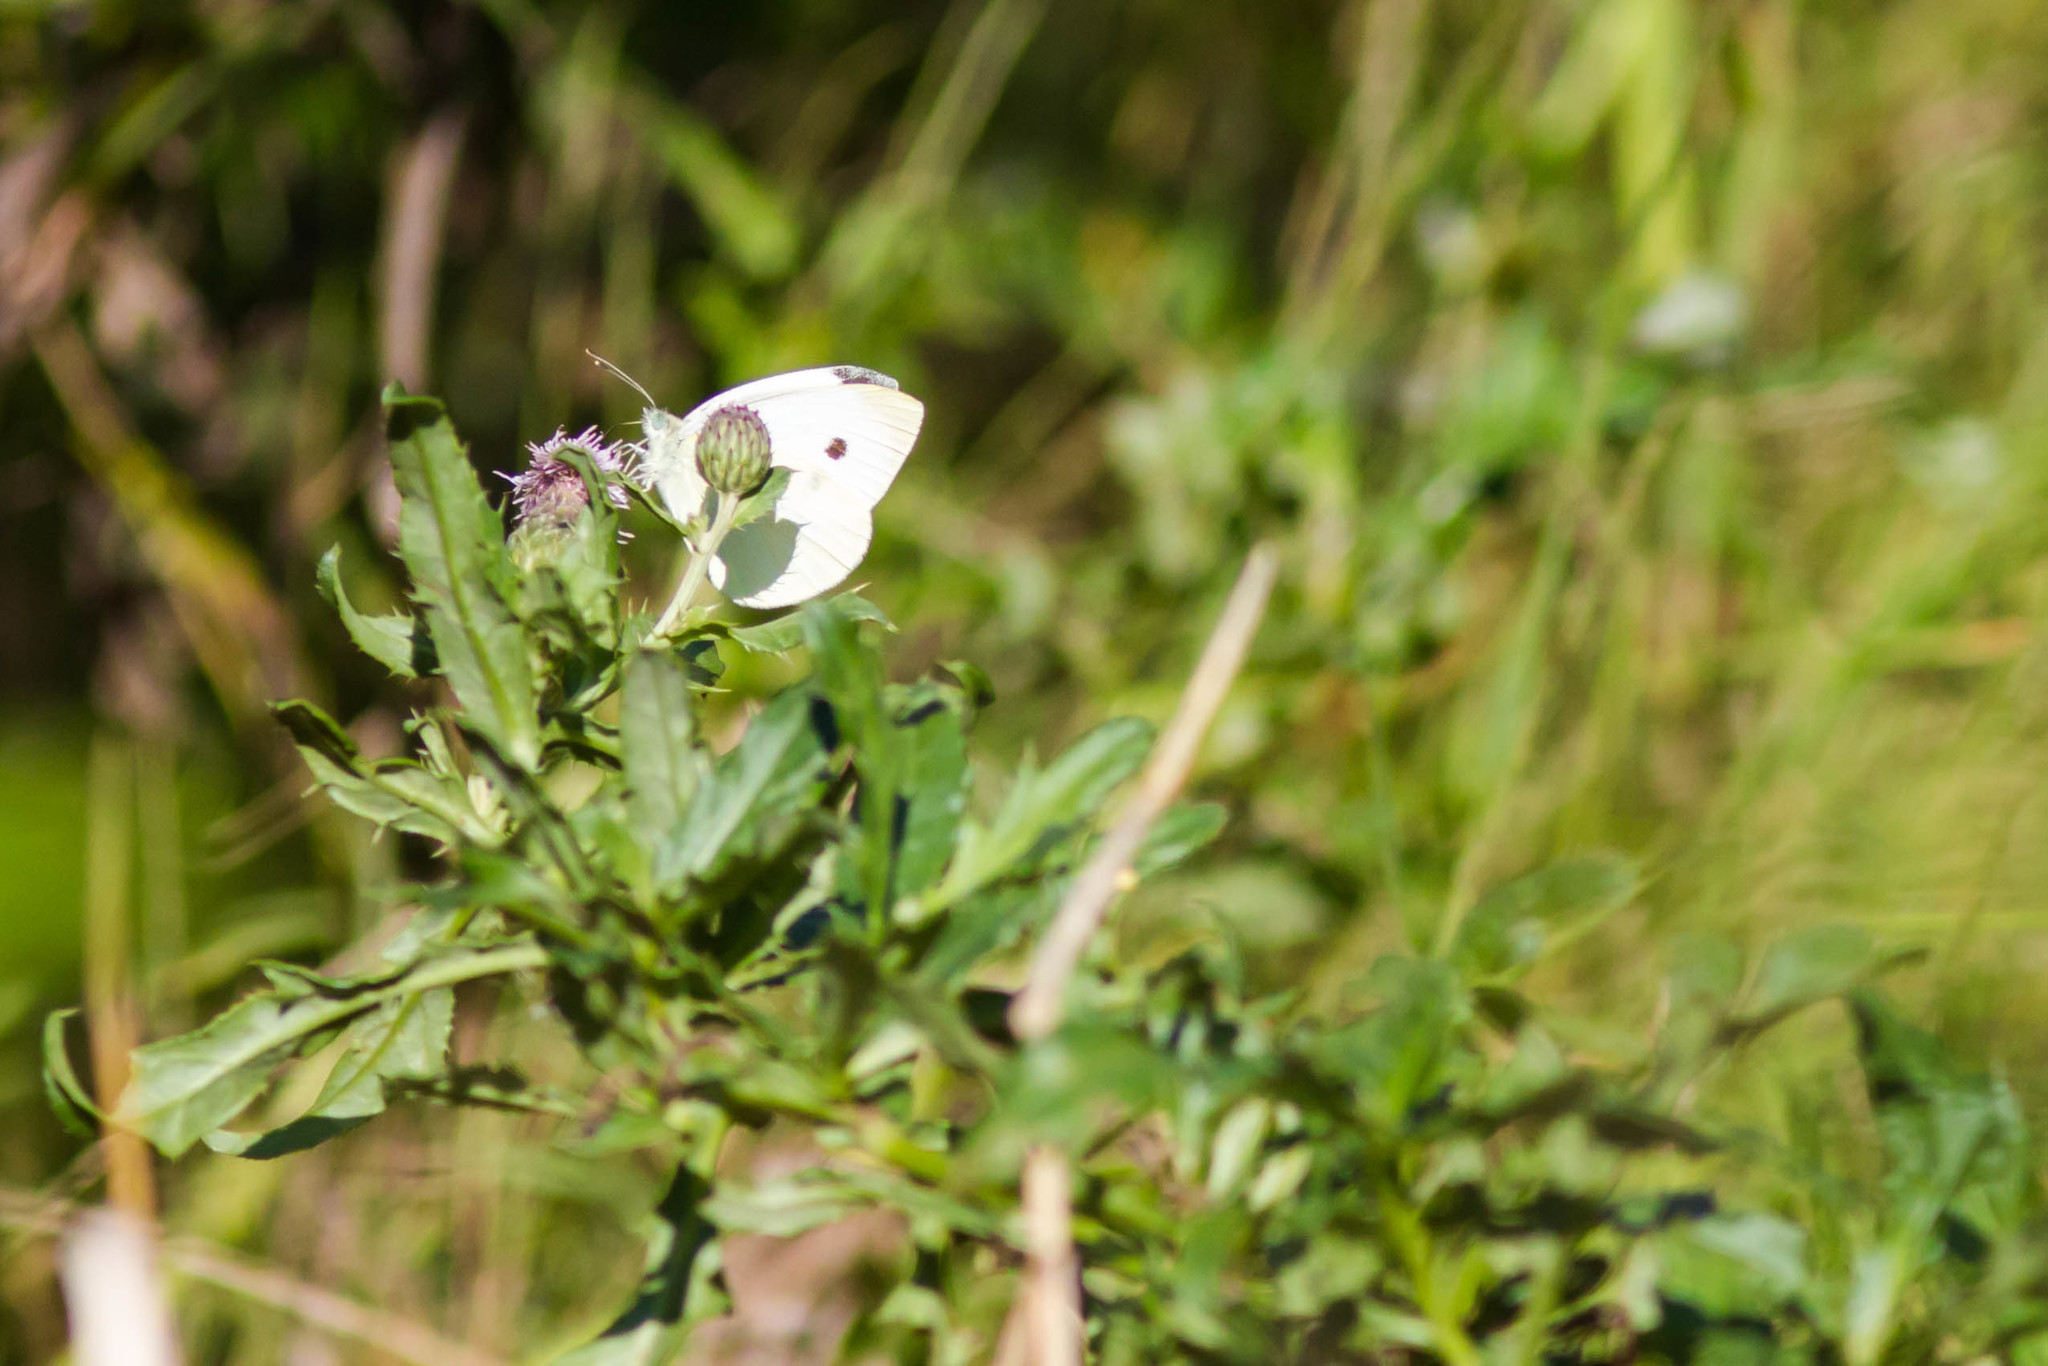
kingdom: Animalia
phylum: Arthropoda
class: Insecta
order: Lepidoptera
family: Pieridae
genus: Pieris
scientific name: Pieris rapae
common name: Small white
